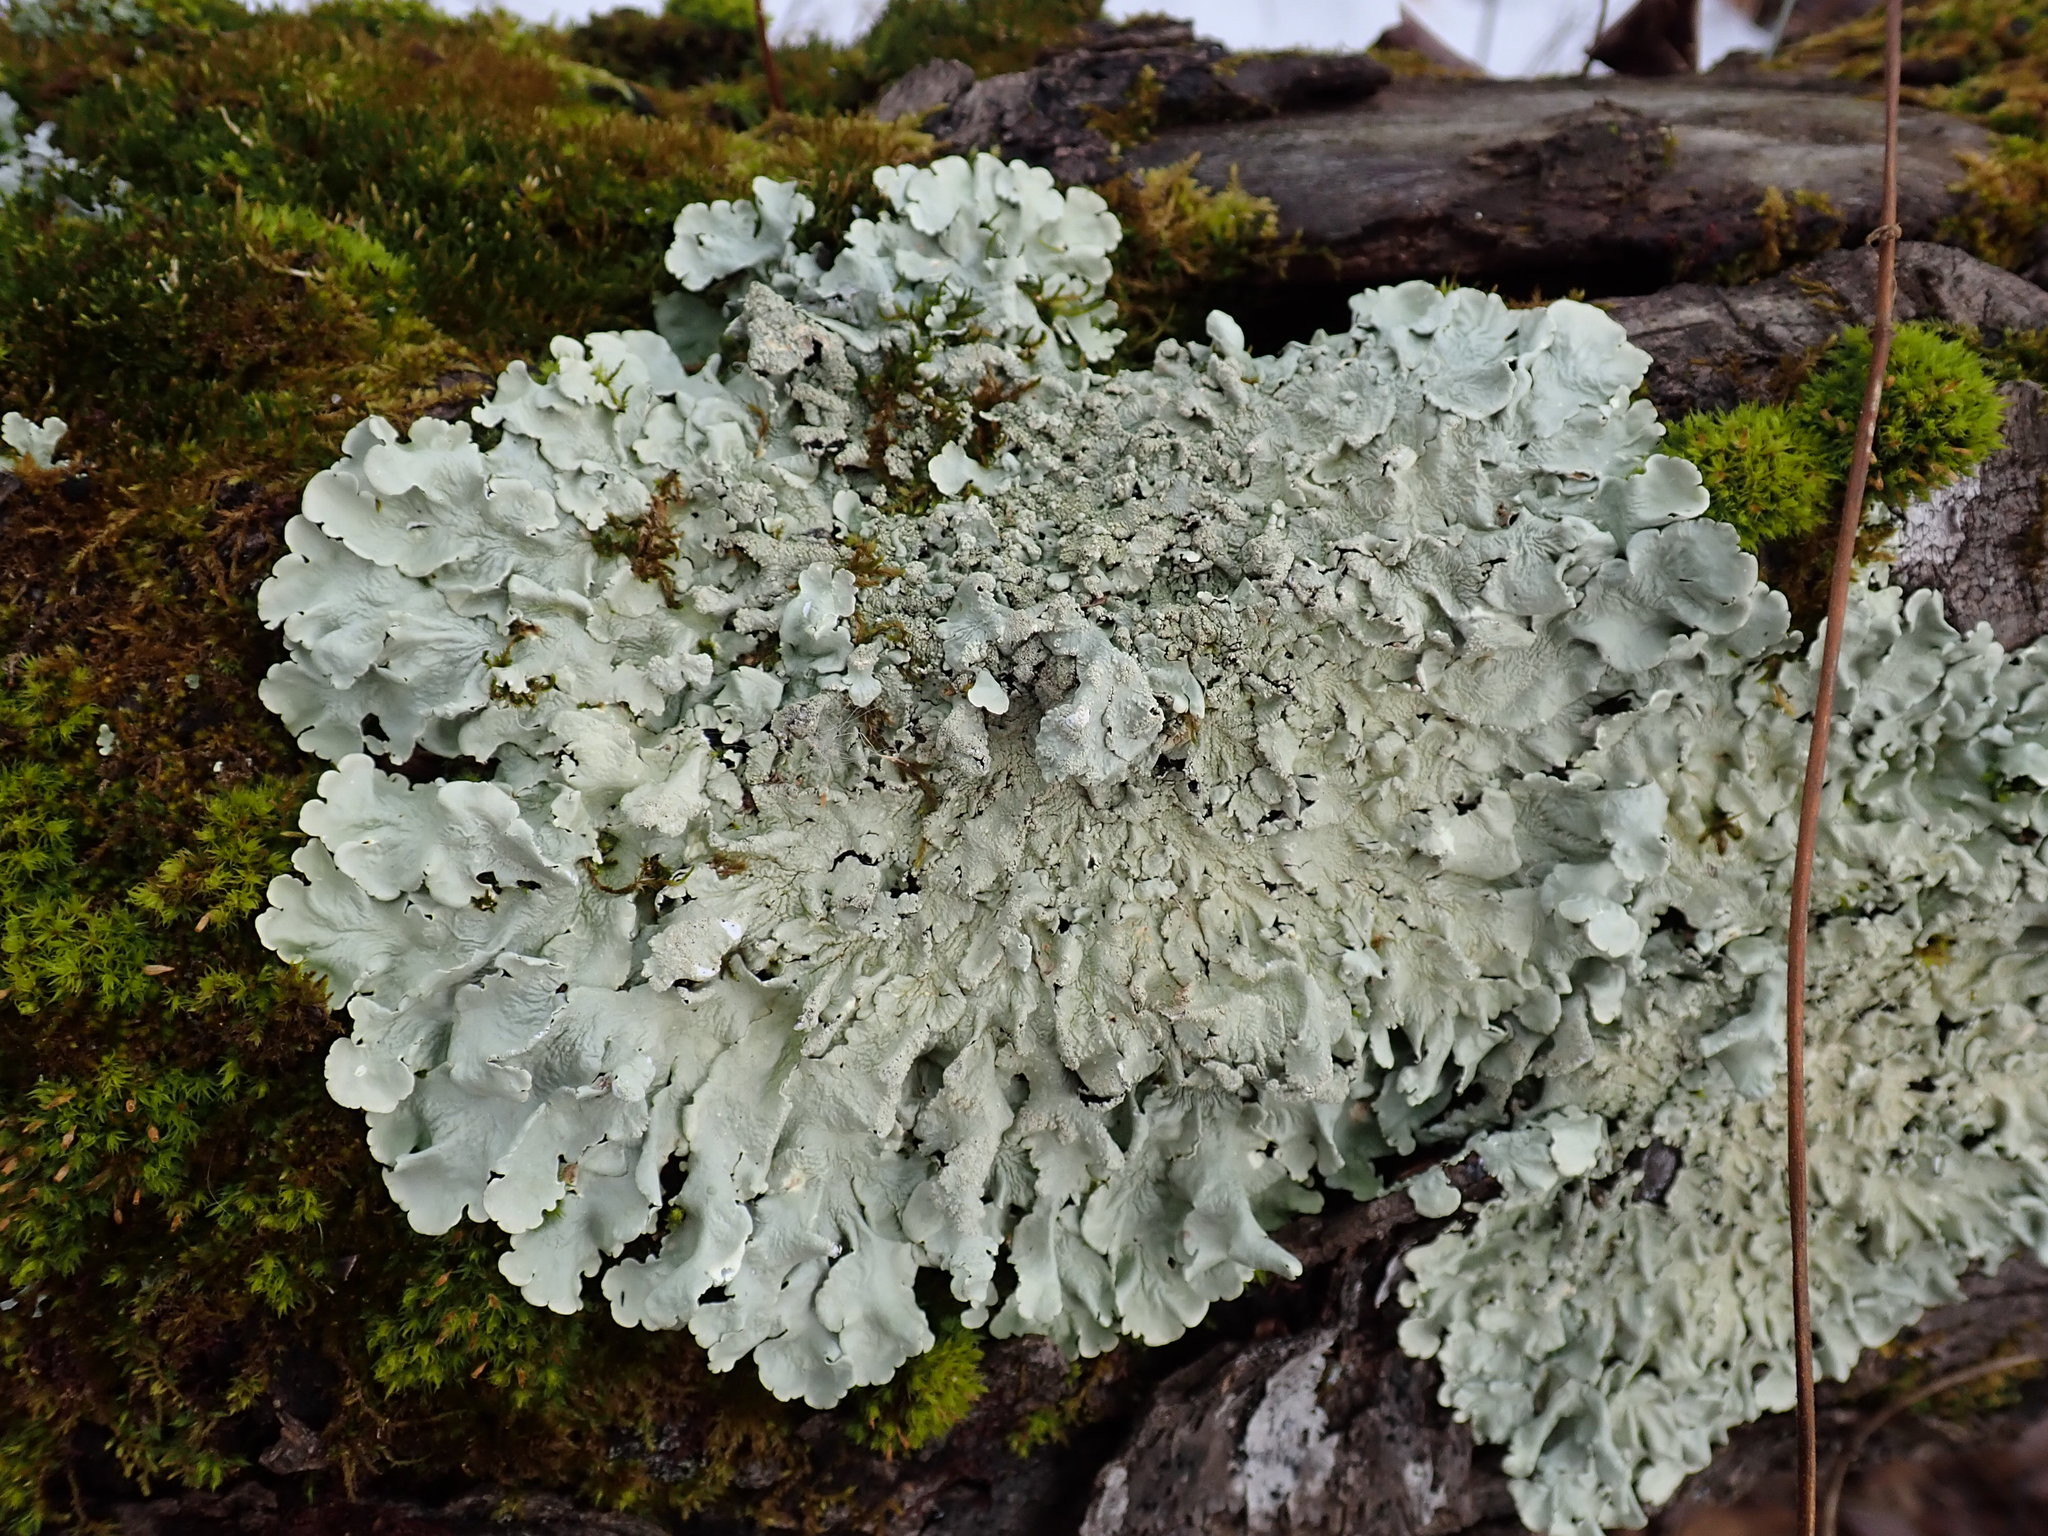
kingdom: Fungi
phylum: Ascomycota
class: Lecanoromycetes
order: Lecanorales
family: Parmeliaceae
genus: Flavoparmelia
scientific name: Flavoparmelia caperata
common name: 40-mile per hour lichen
